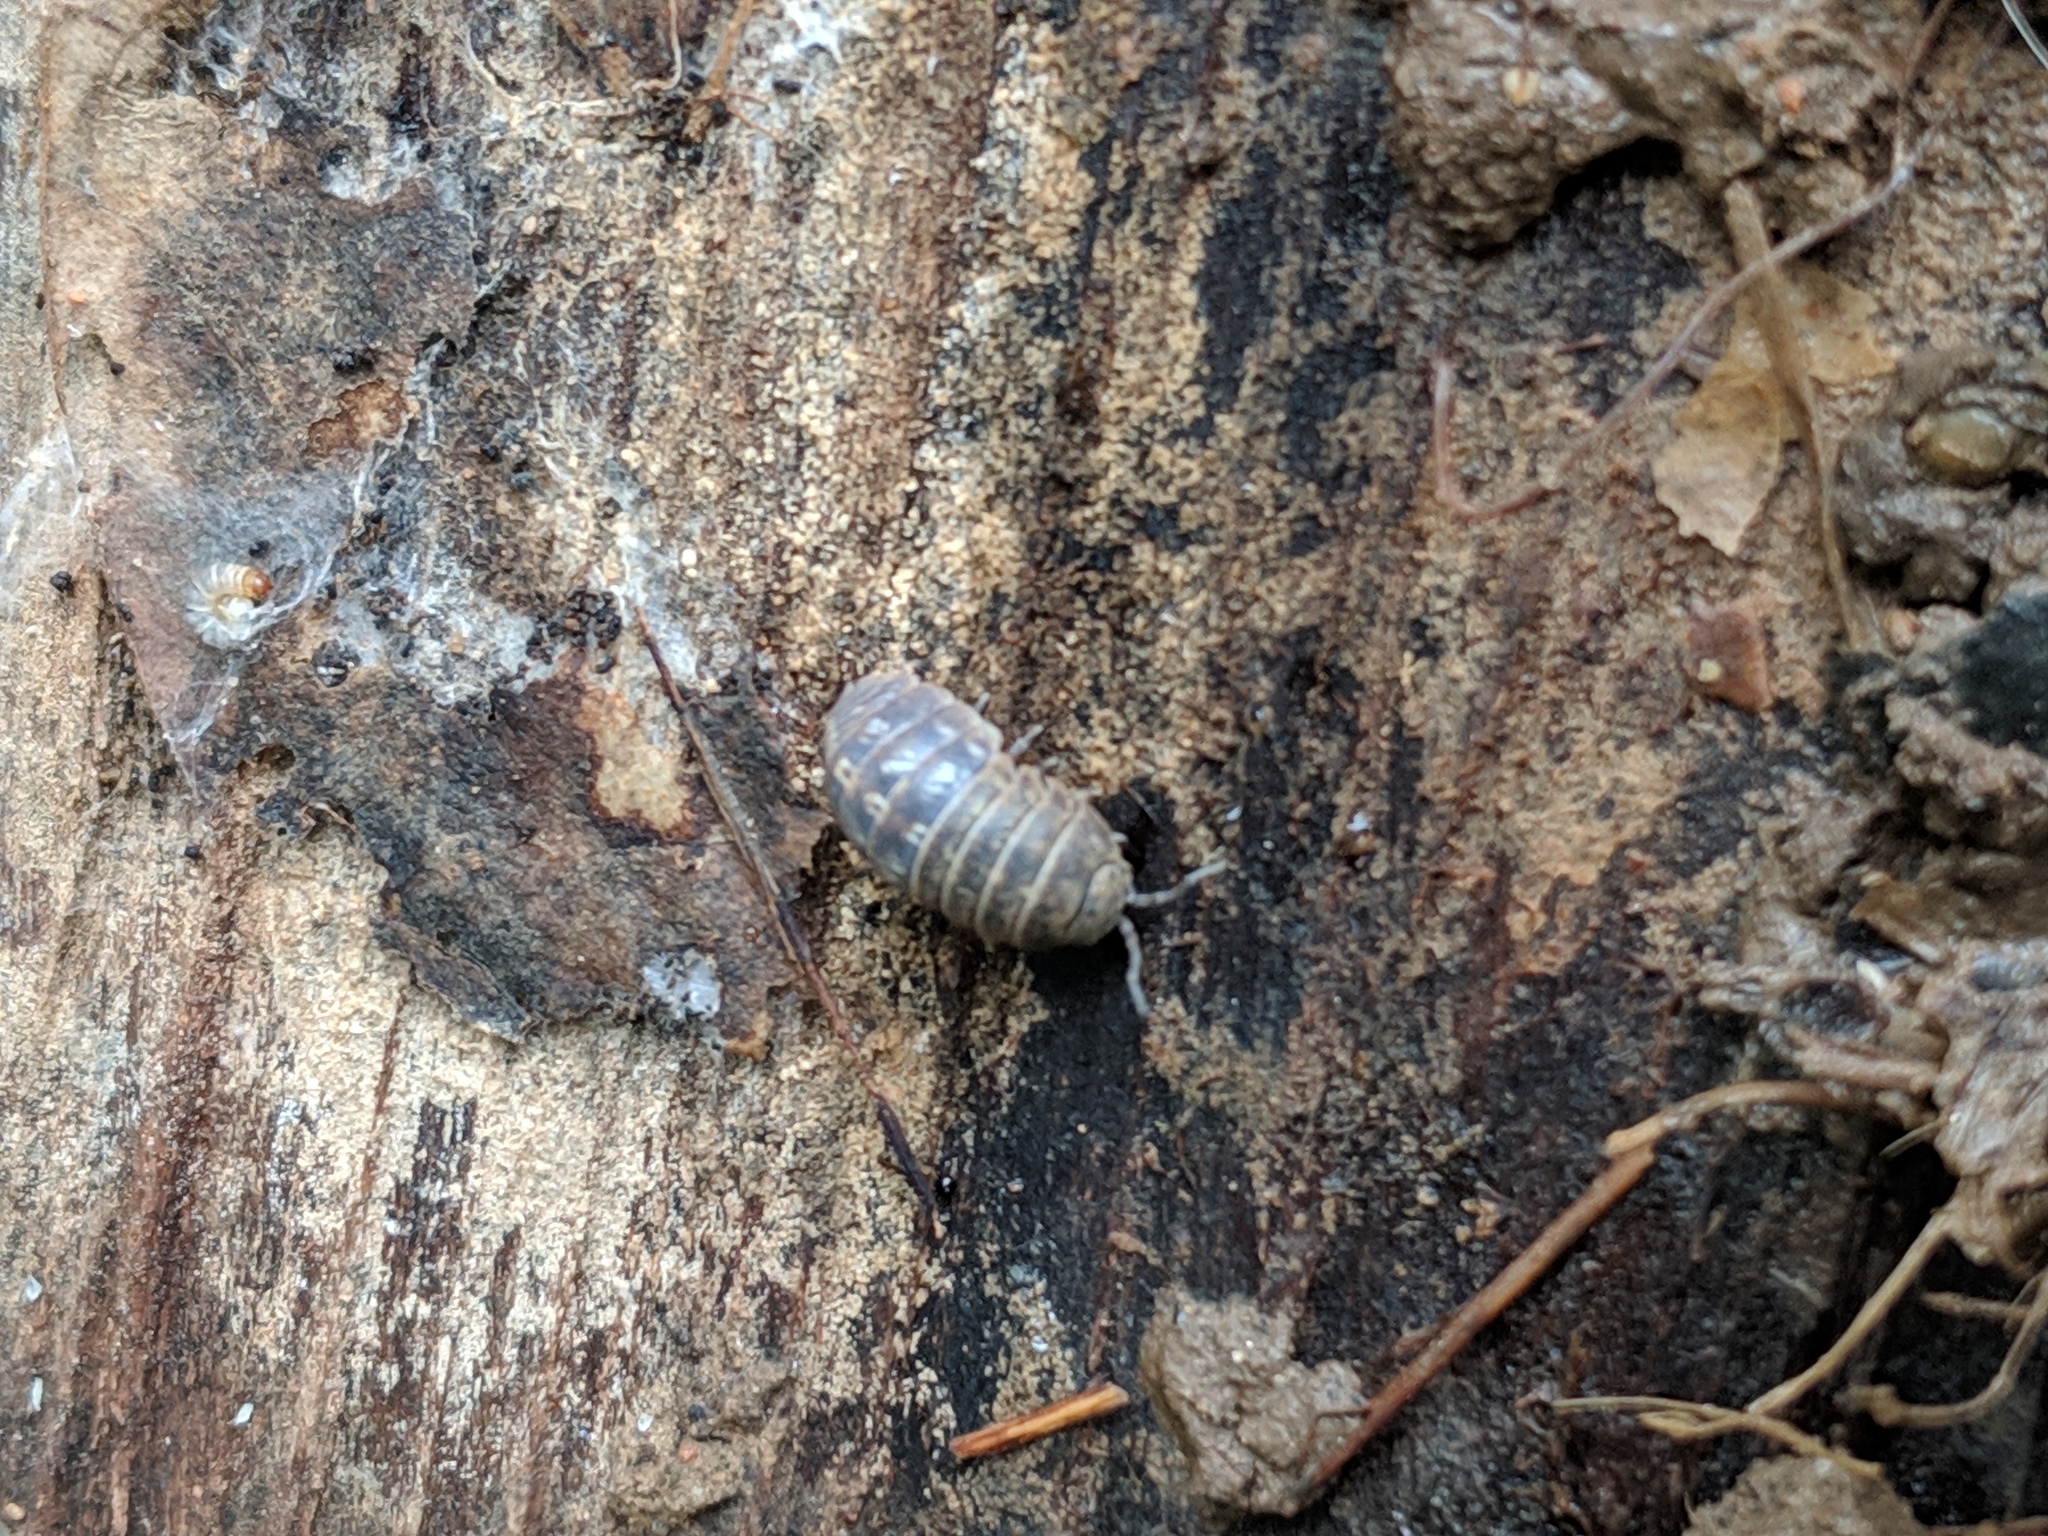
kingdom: Animalia
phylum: Arthropoda
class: Malacostraca
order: Isopoda
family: Armadillidiidae
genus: Armadillidium
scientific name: Armadillidium vulgare
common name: Common pill woodlouse
